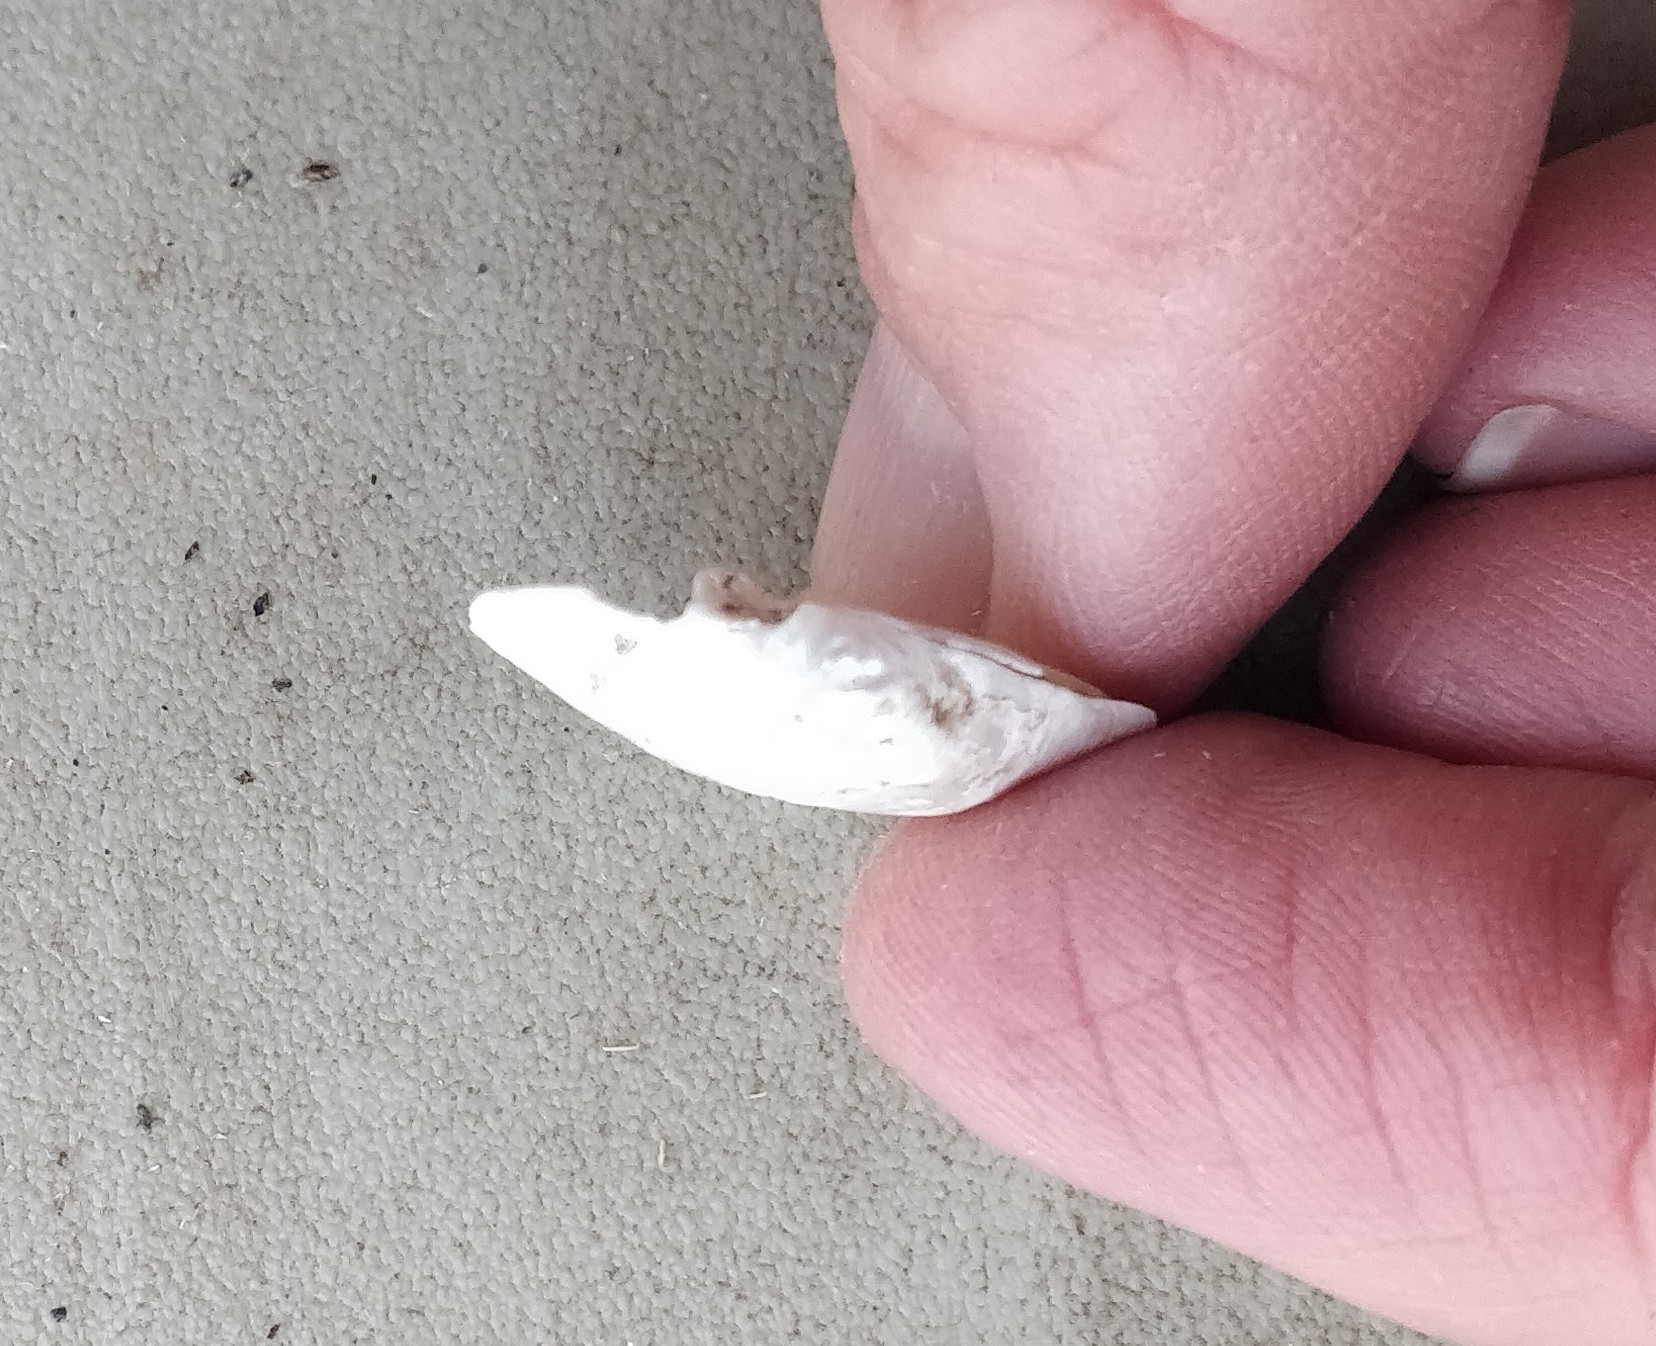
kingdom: Animalia
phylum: Mollusca
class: Bivalvia
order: Unionida
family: Unionidae
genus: Amblema
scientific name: Amblema plicata
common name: Threeridge
